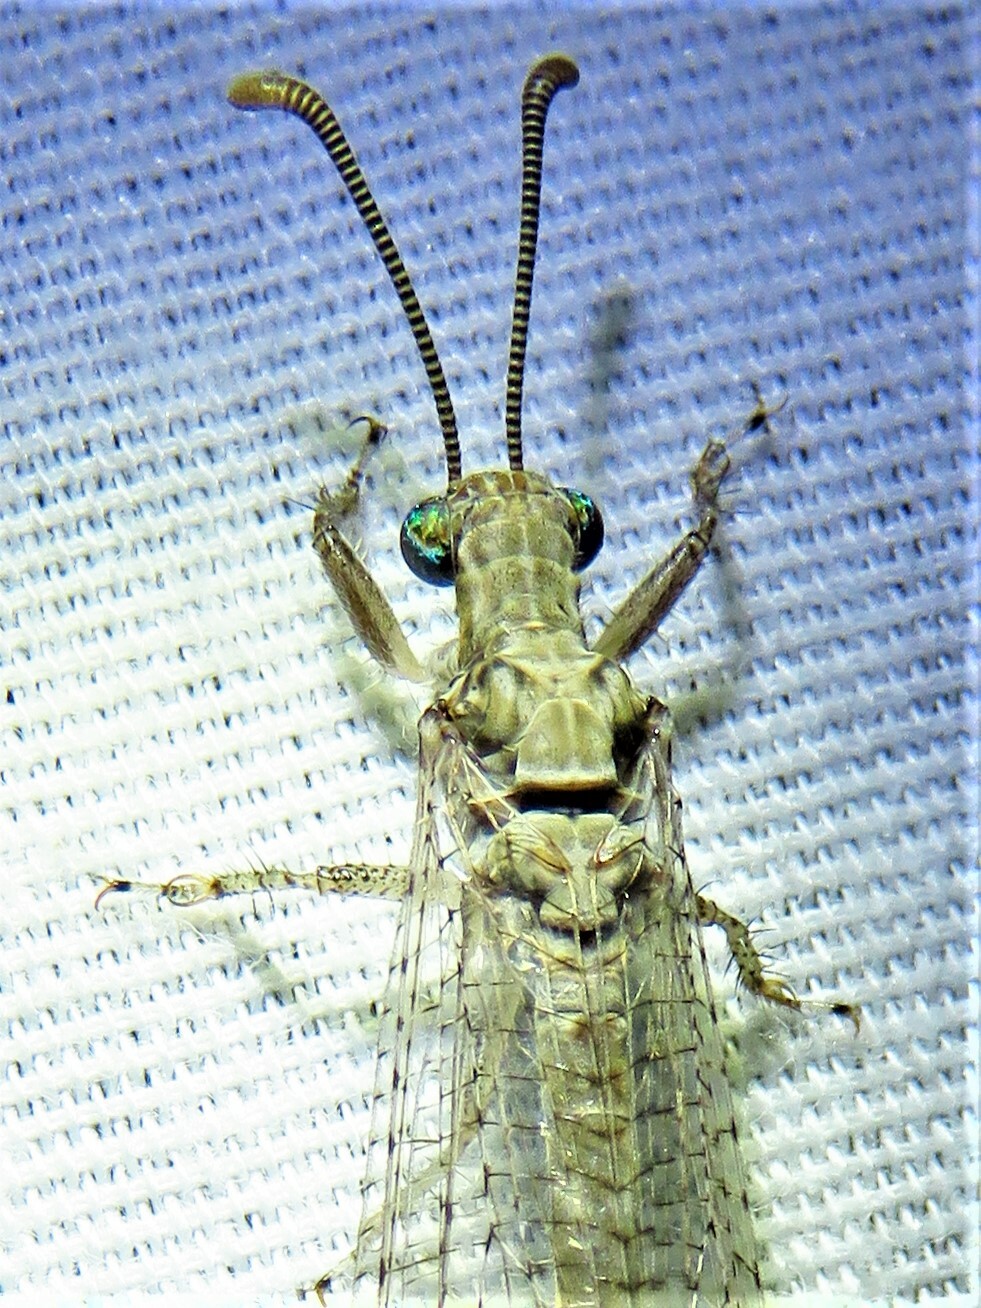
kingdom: Animalia
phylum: Arthropoda
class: Insecta
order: Neuroptera
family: Myrmeleontidae
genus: Euptilon
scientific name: Euptilon ornatum
